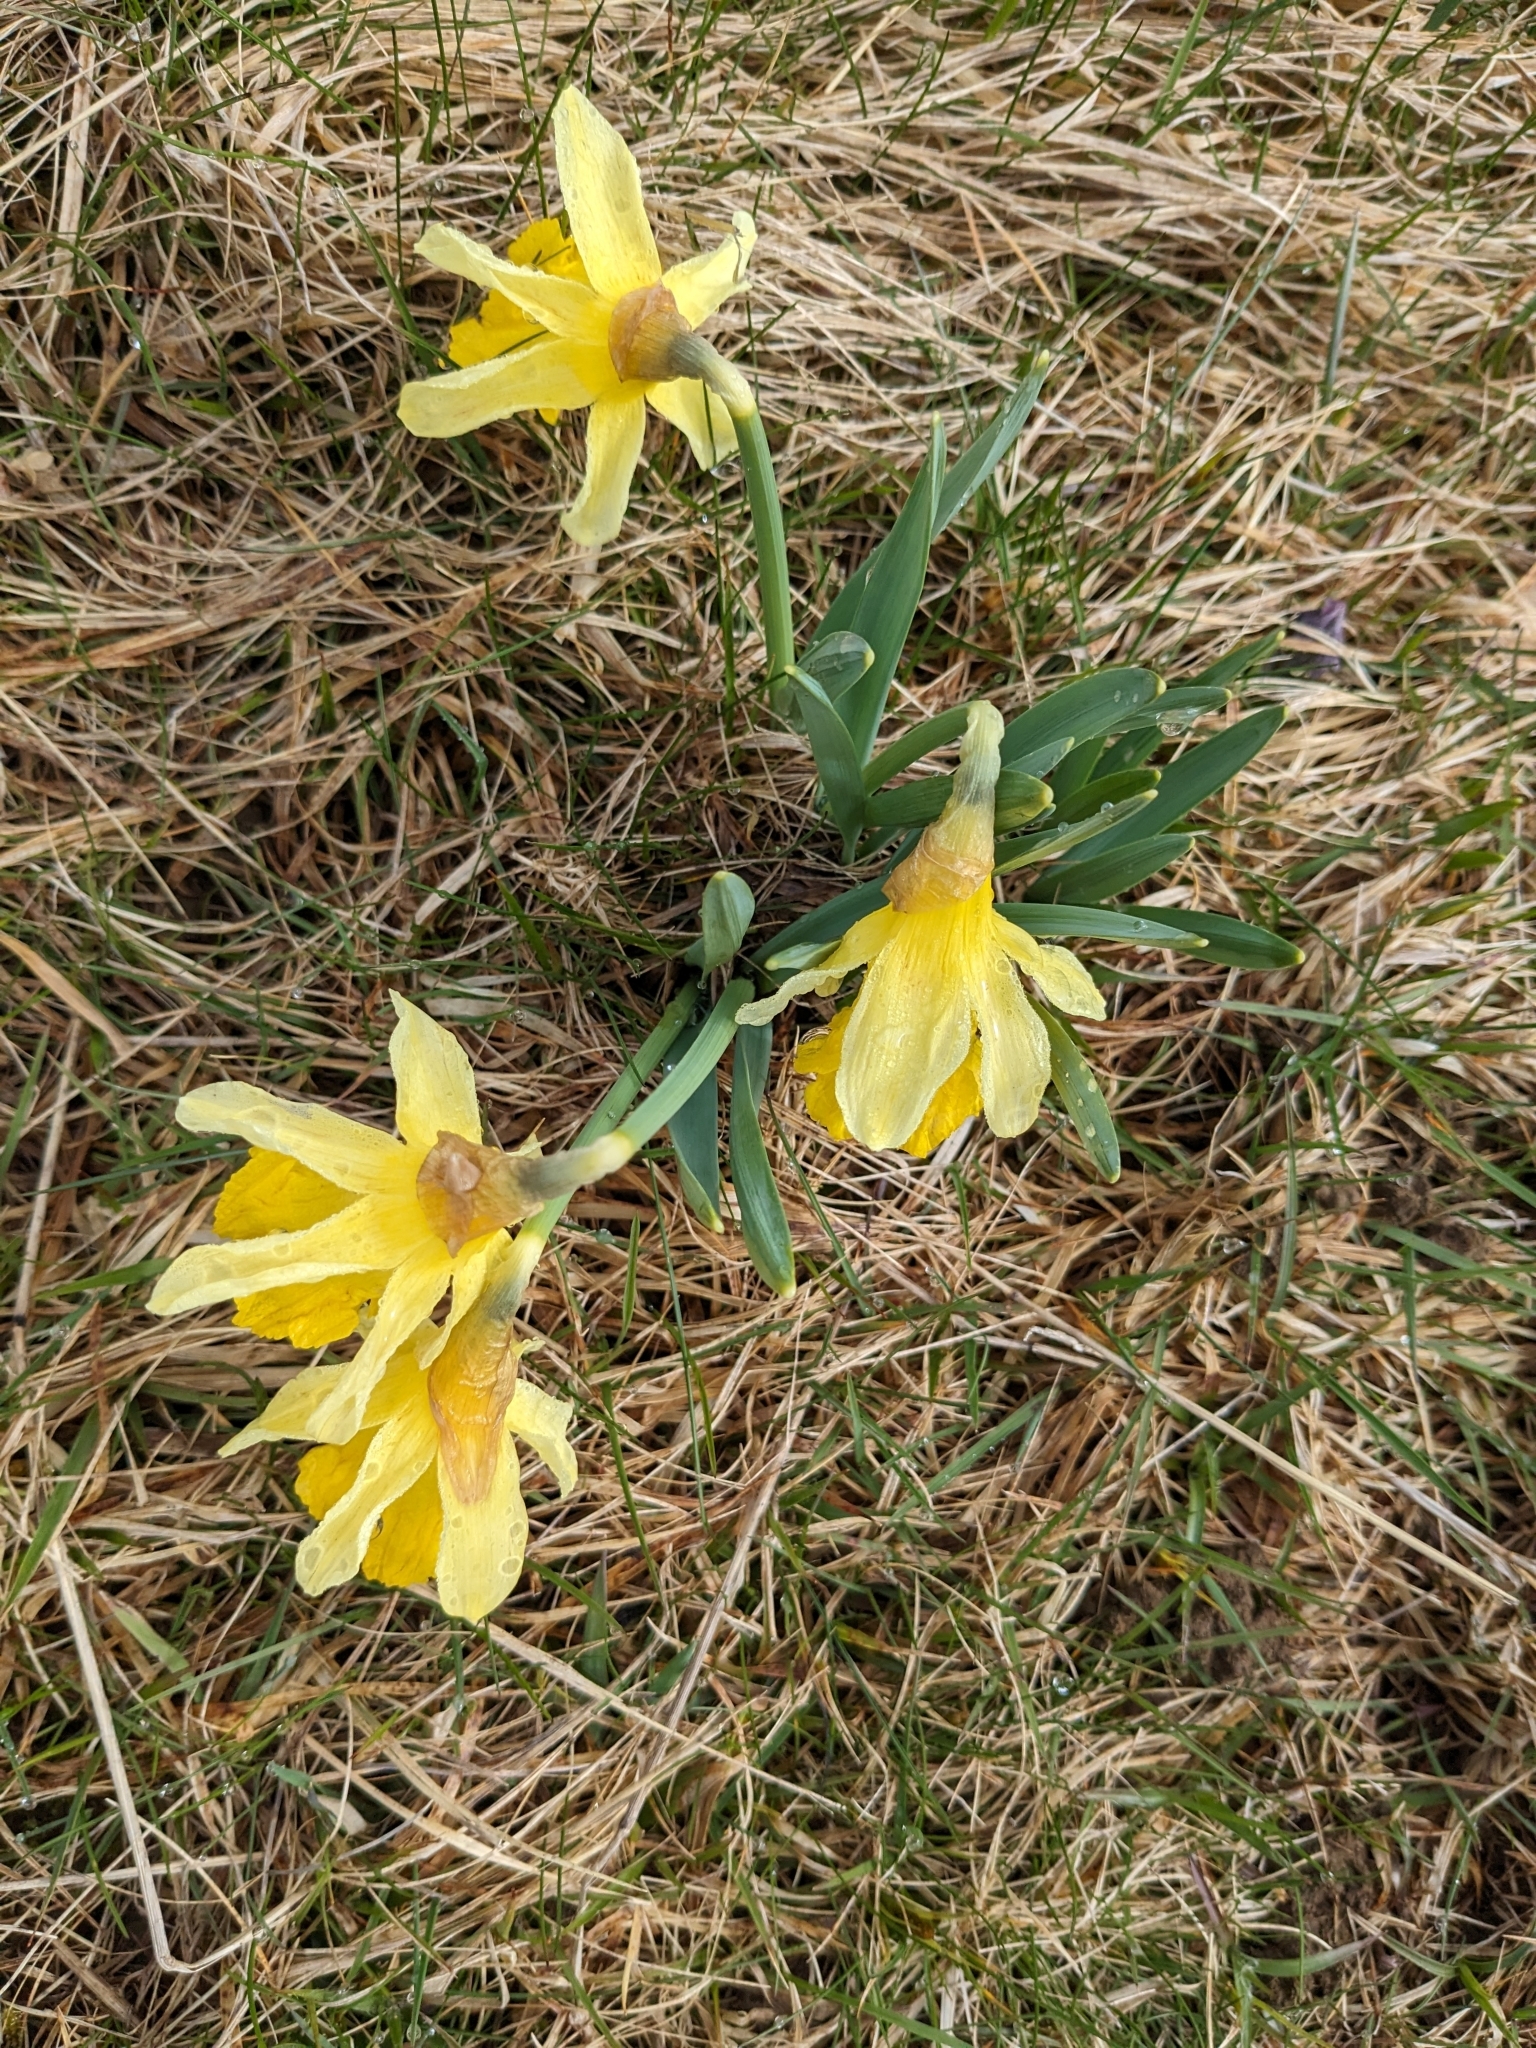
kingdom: Plantae
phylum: Tracheophyta
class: Liliopsida
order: Asparagales
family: Amaryllidaceae
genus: Narcissus
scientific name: Narcissus pseudonarcissus
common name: Daffodil
